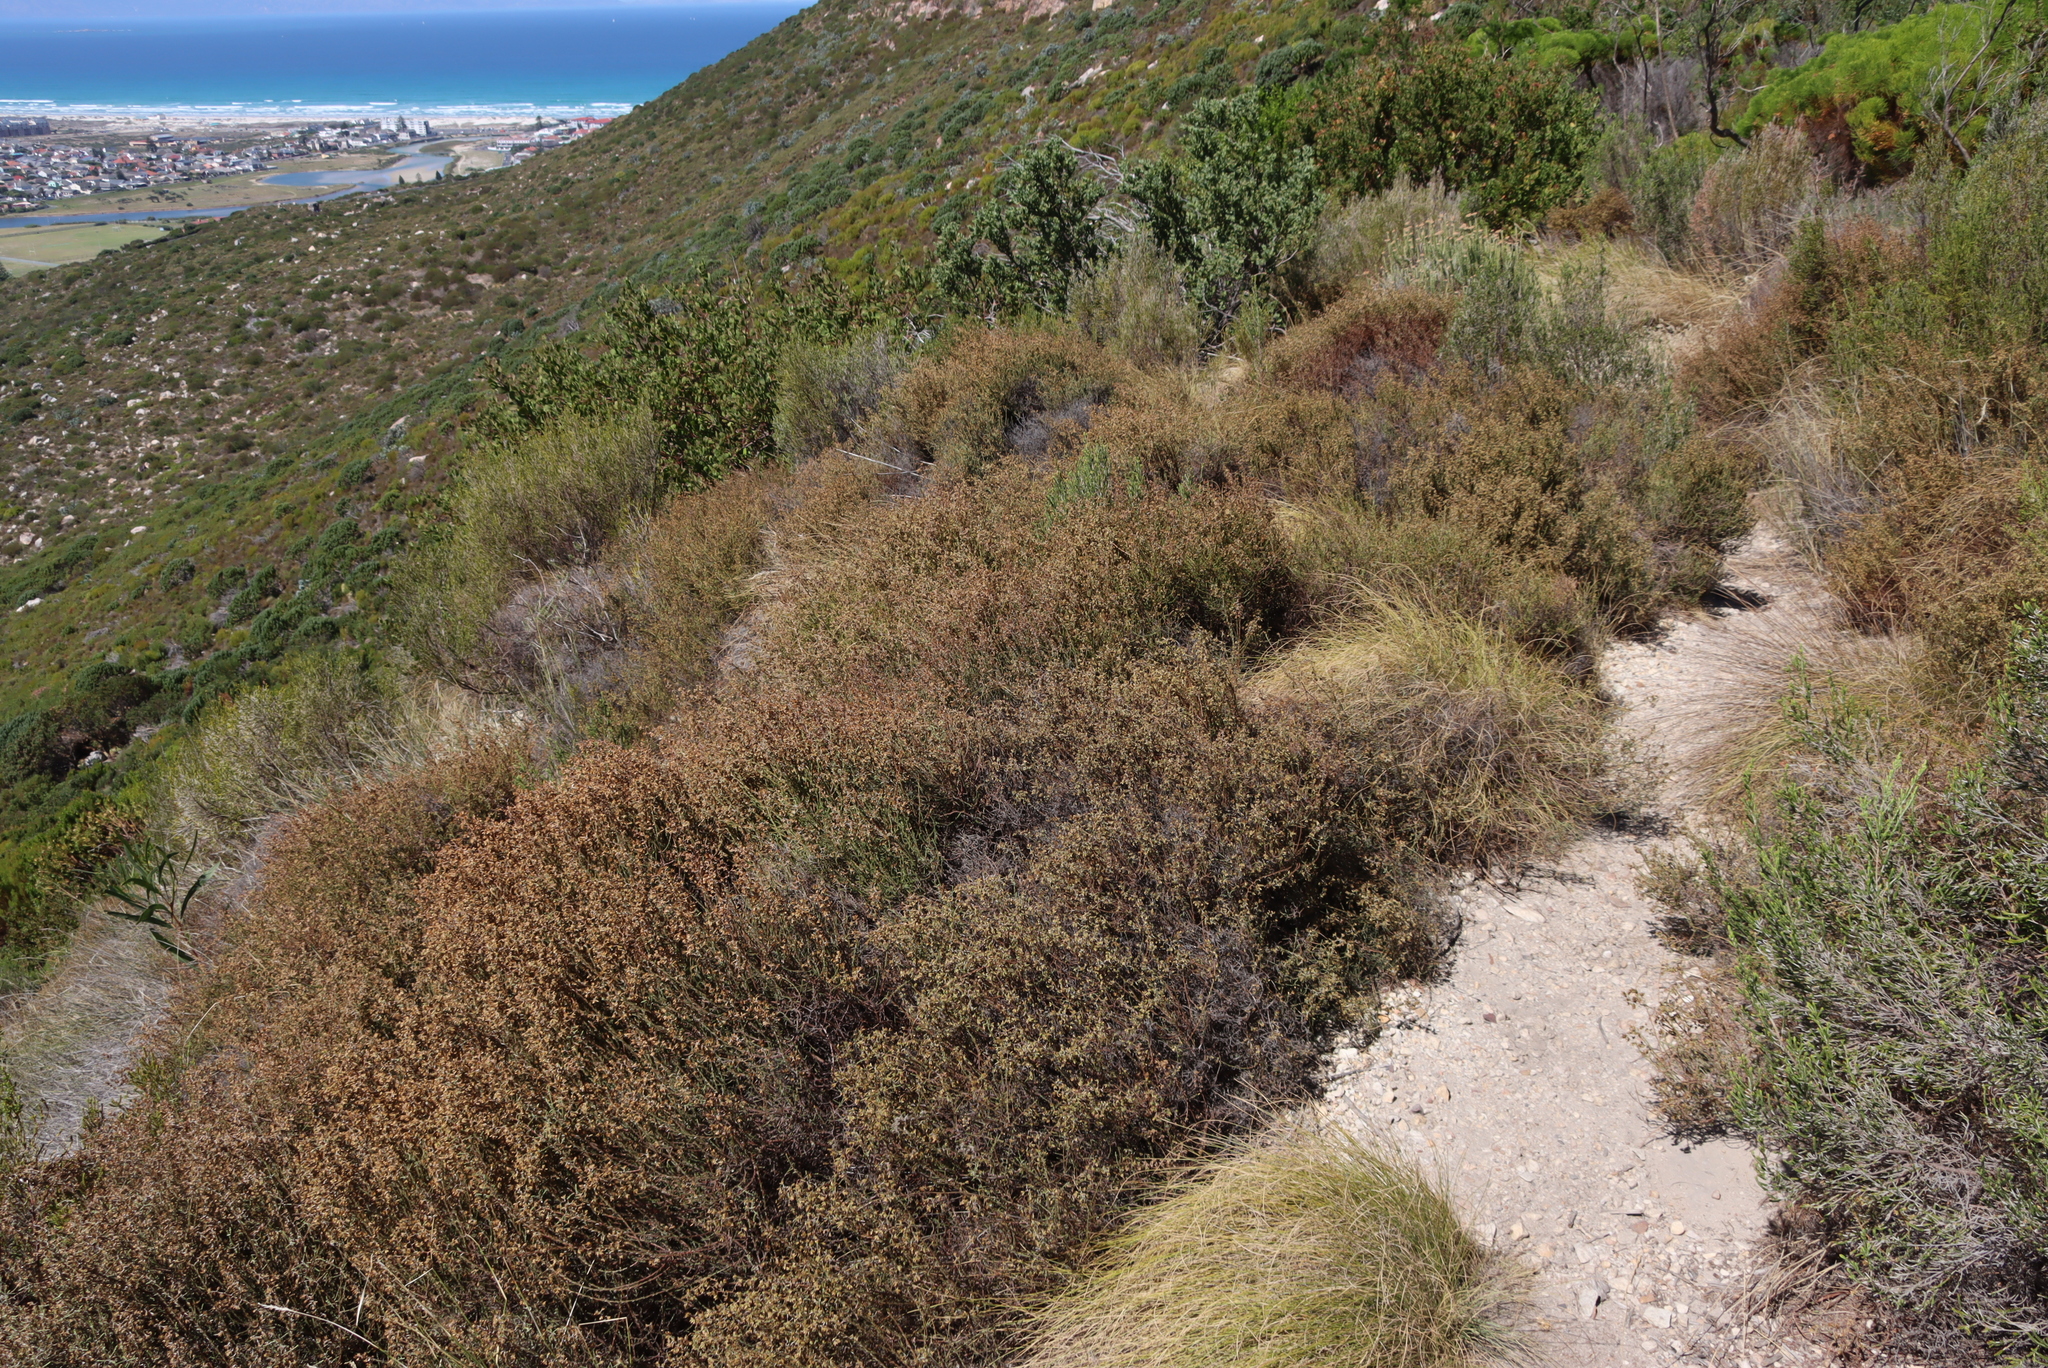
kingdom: Plantae
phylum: Tracheophyta
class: Magnoliopsida
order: Asterales
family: Asteraceae
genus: Myrovernix
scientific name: Myrovernix scaber
